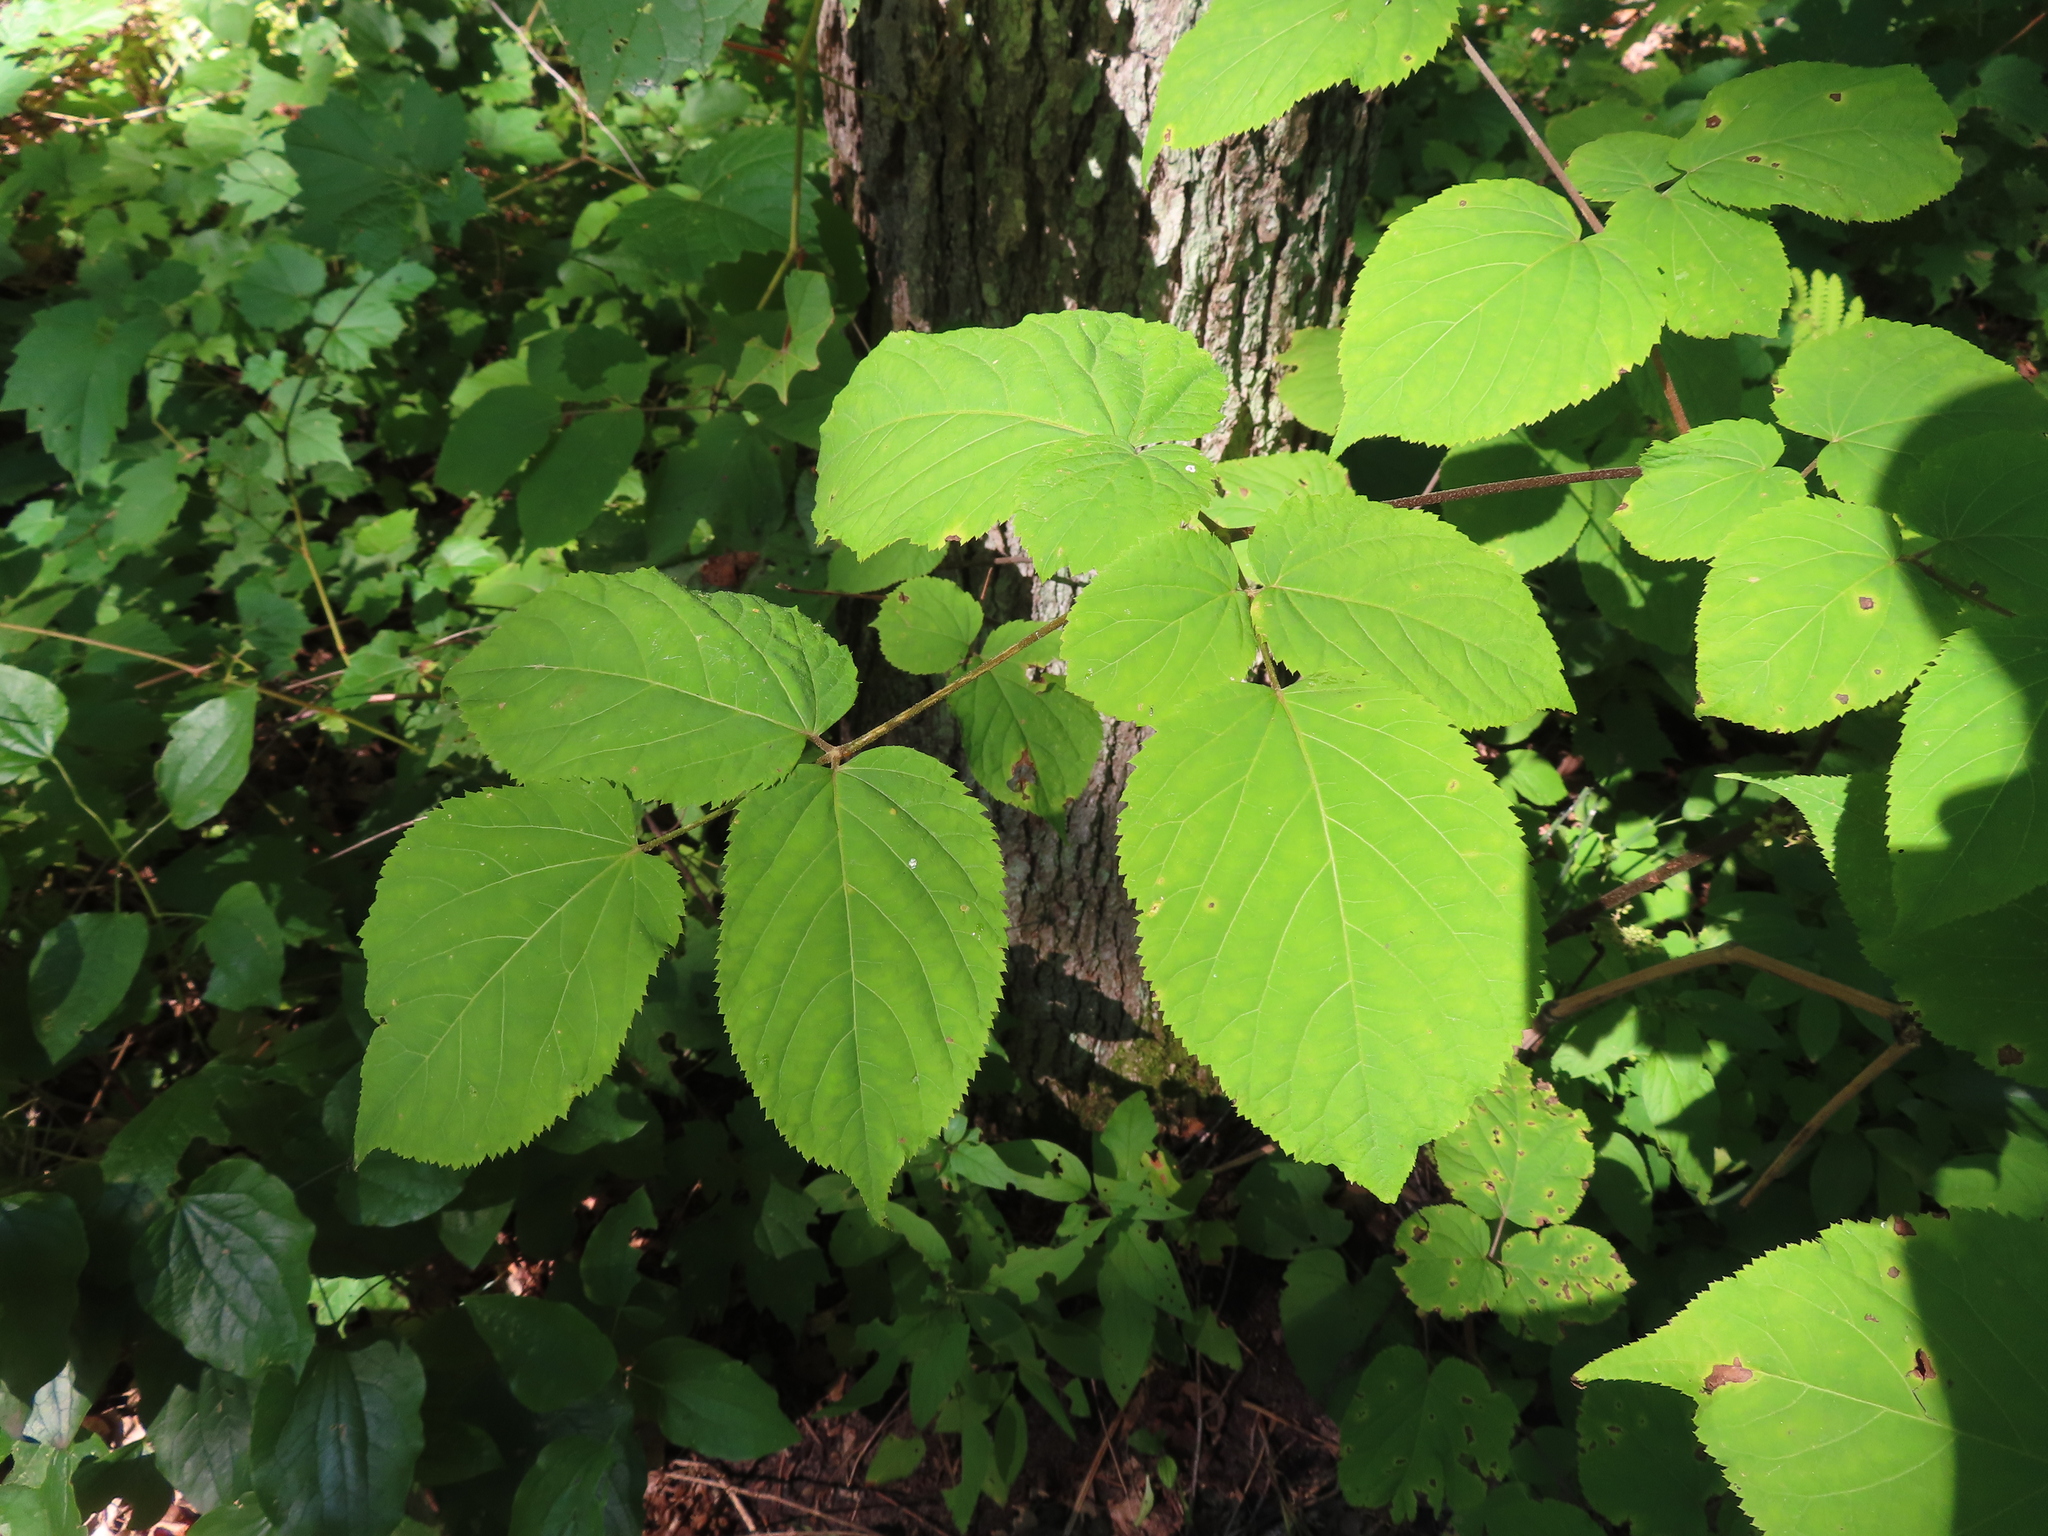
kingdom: Plantae
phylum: Tracheophyta
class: Magnoliopsida
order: Apiales
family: Araliaceae
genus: Aralia
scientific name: Aralia racemosa
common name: American-spikenard
